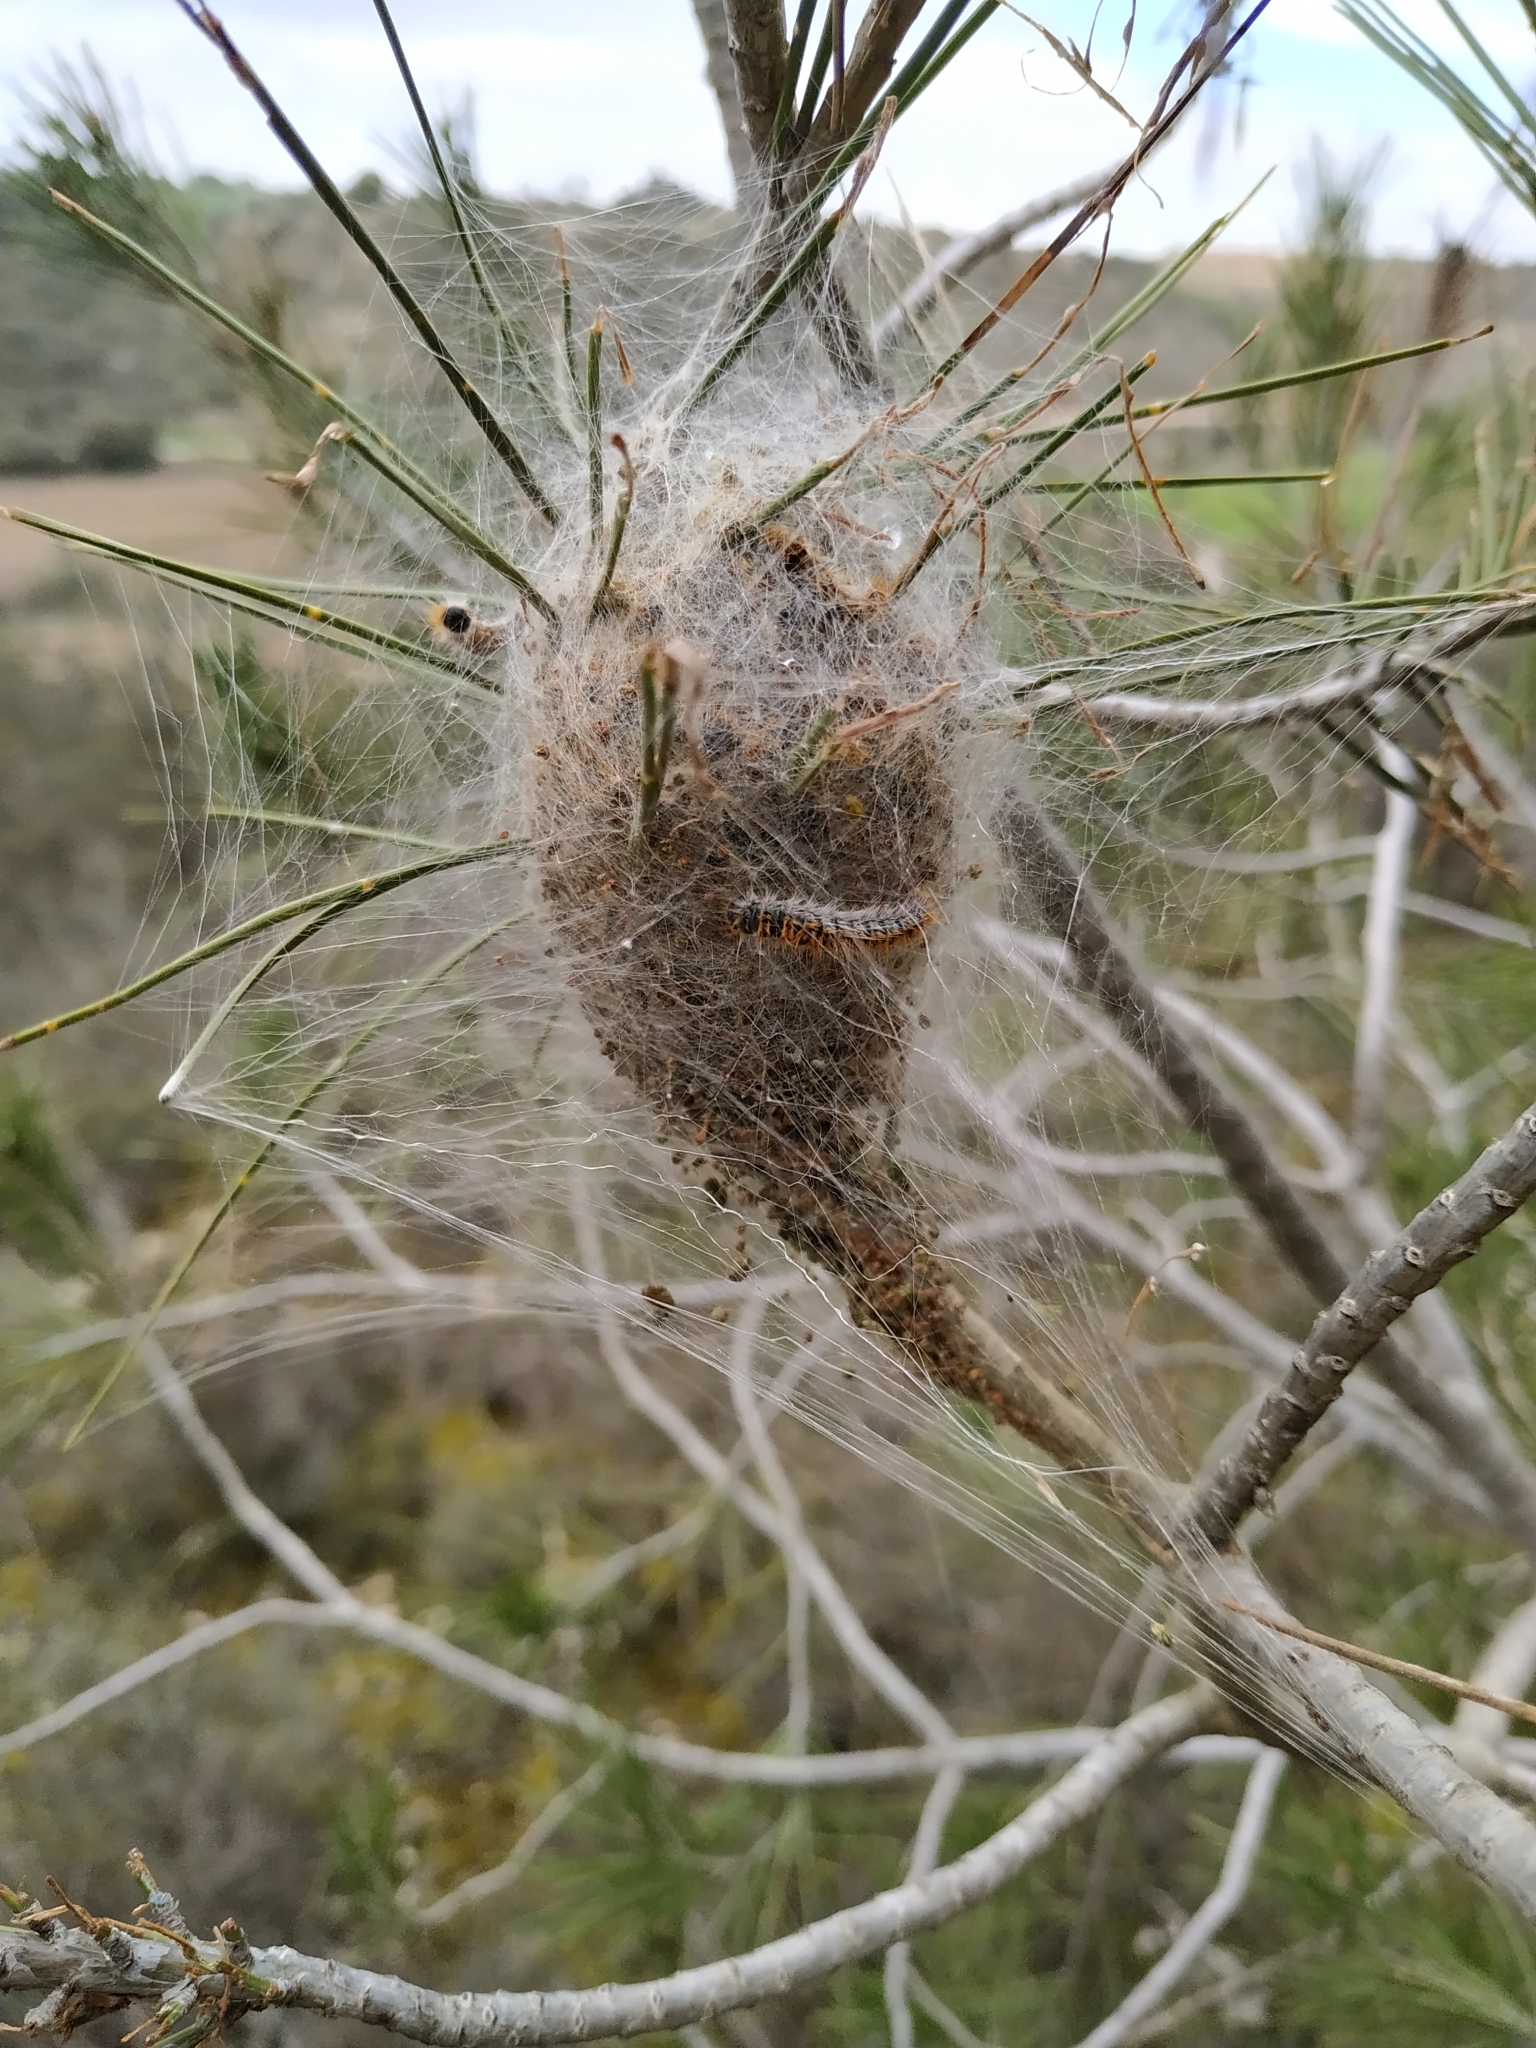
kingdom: Animalia
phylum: Arthropoda
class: Insecta
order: Lepidoptera
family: Notodontidae
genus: Thaumetopoea
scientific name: Thaumetopoea pityocampa
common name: Pine processionary
